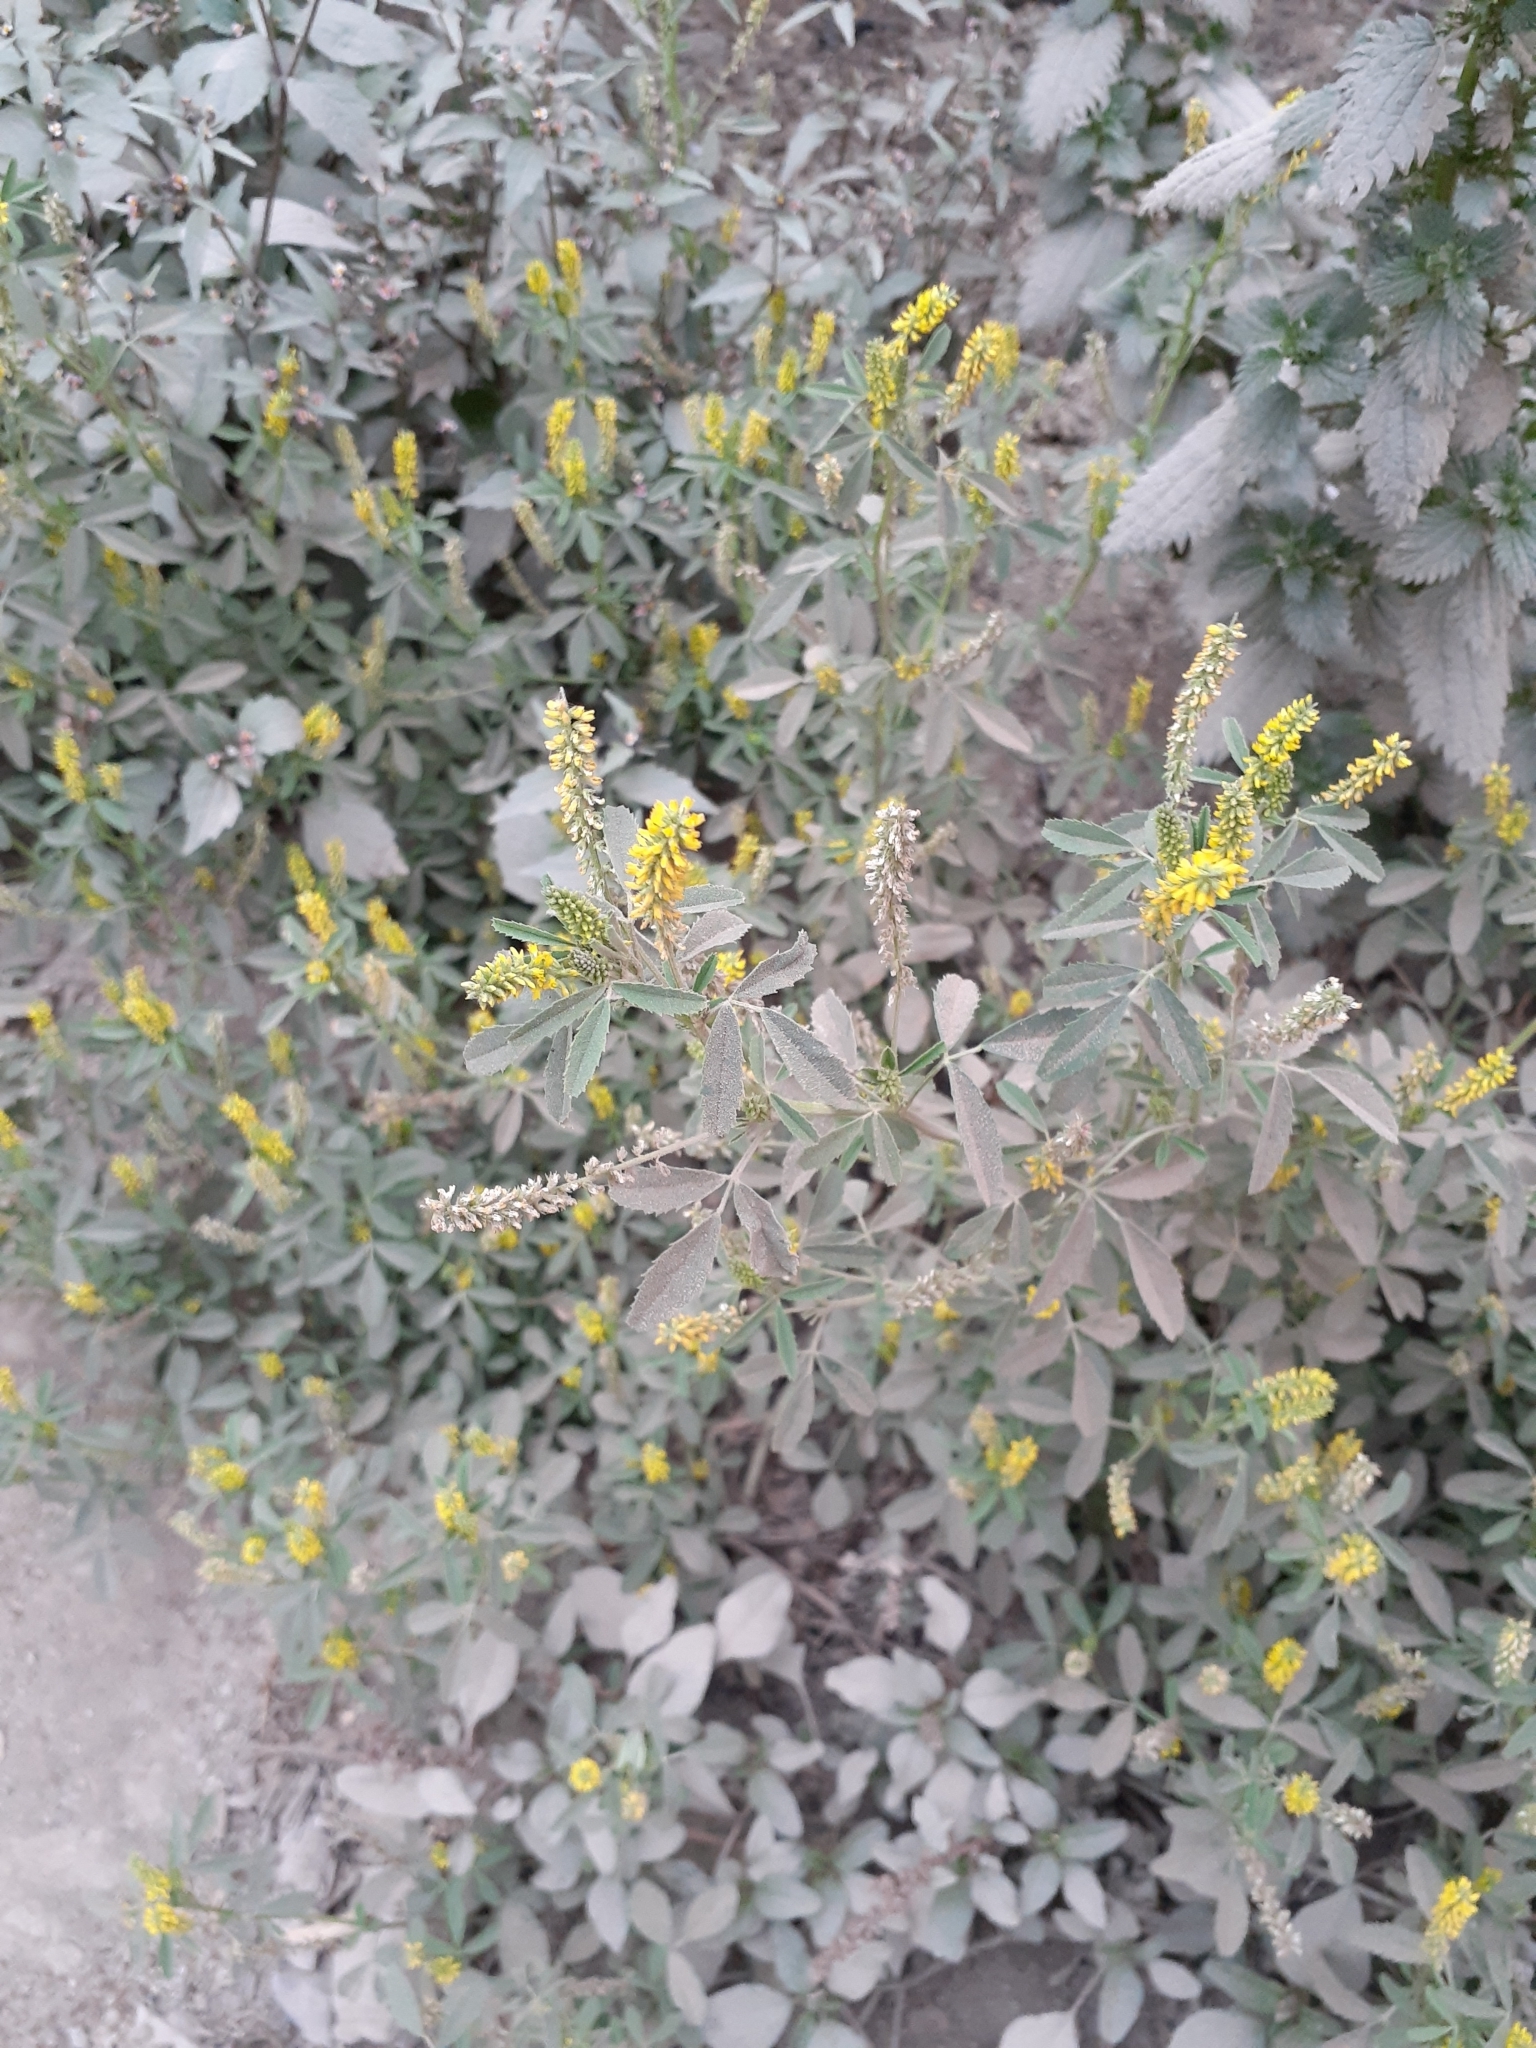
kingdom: Plantae
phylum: Tracheophyta
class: Magnoliopsida
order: Fabales
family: Fabaceae
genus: Melilotus
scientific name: Melilotus indicus
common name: Small melilot
